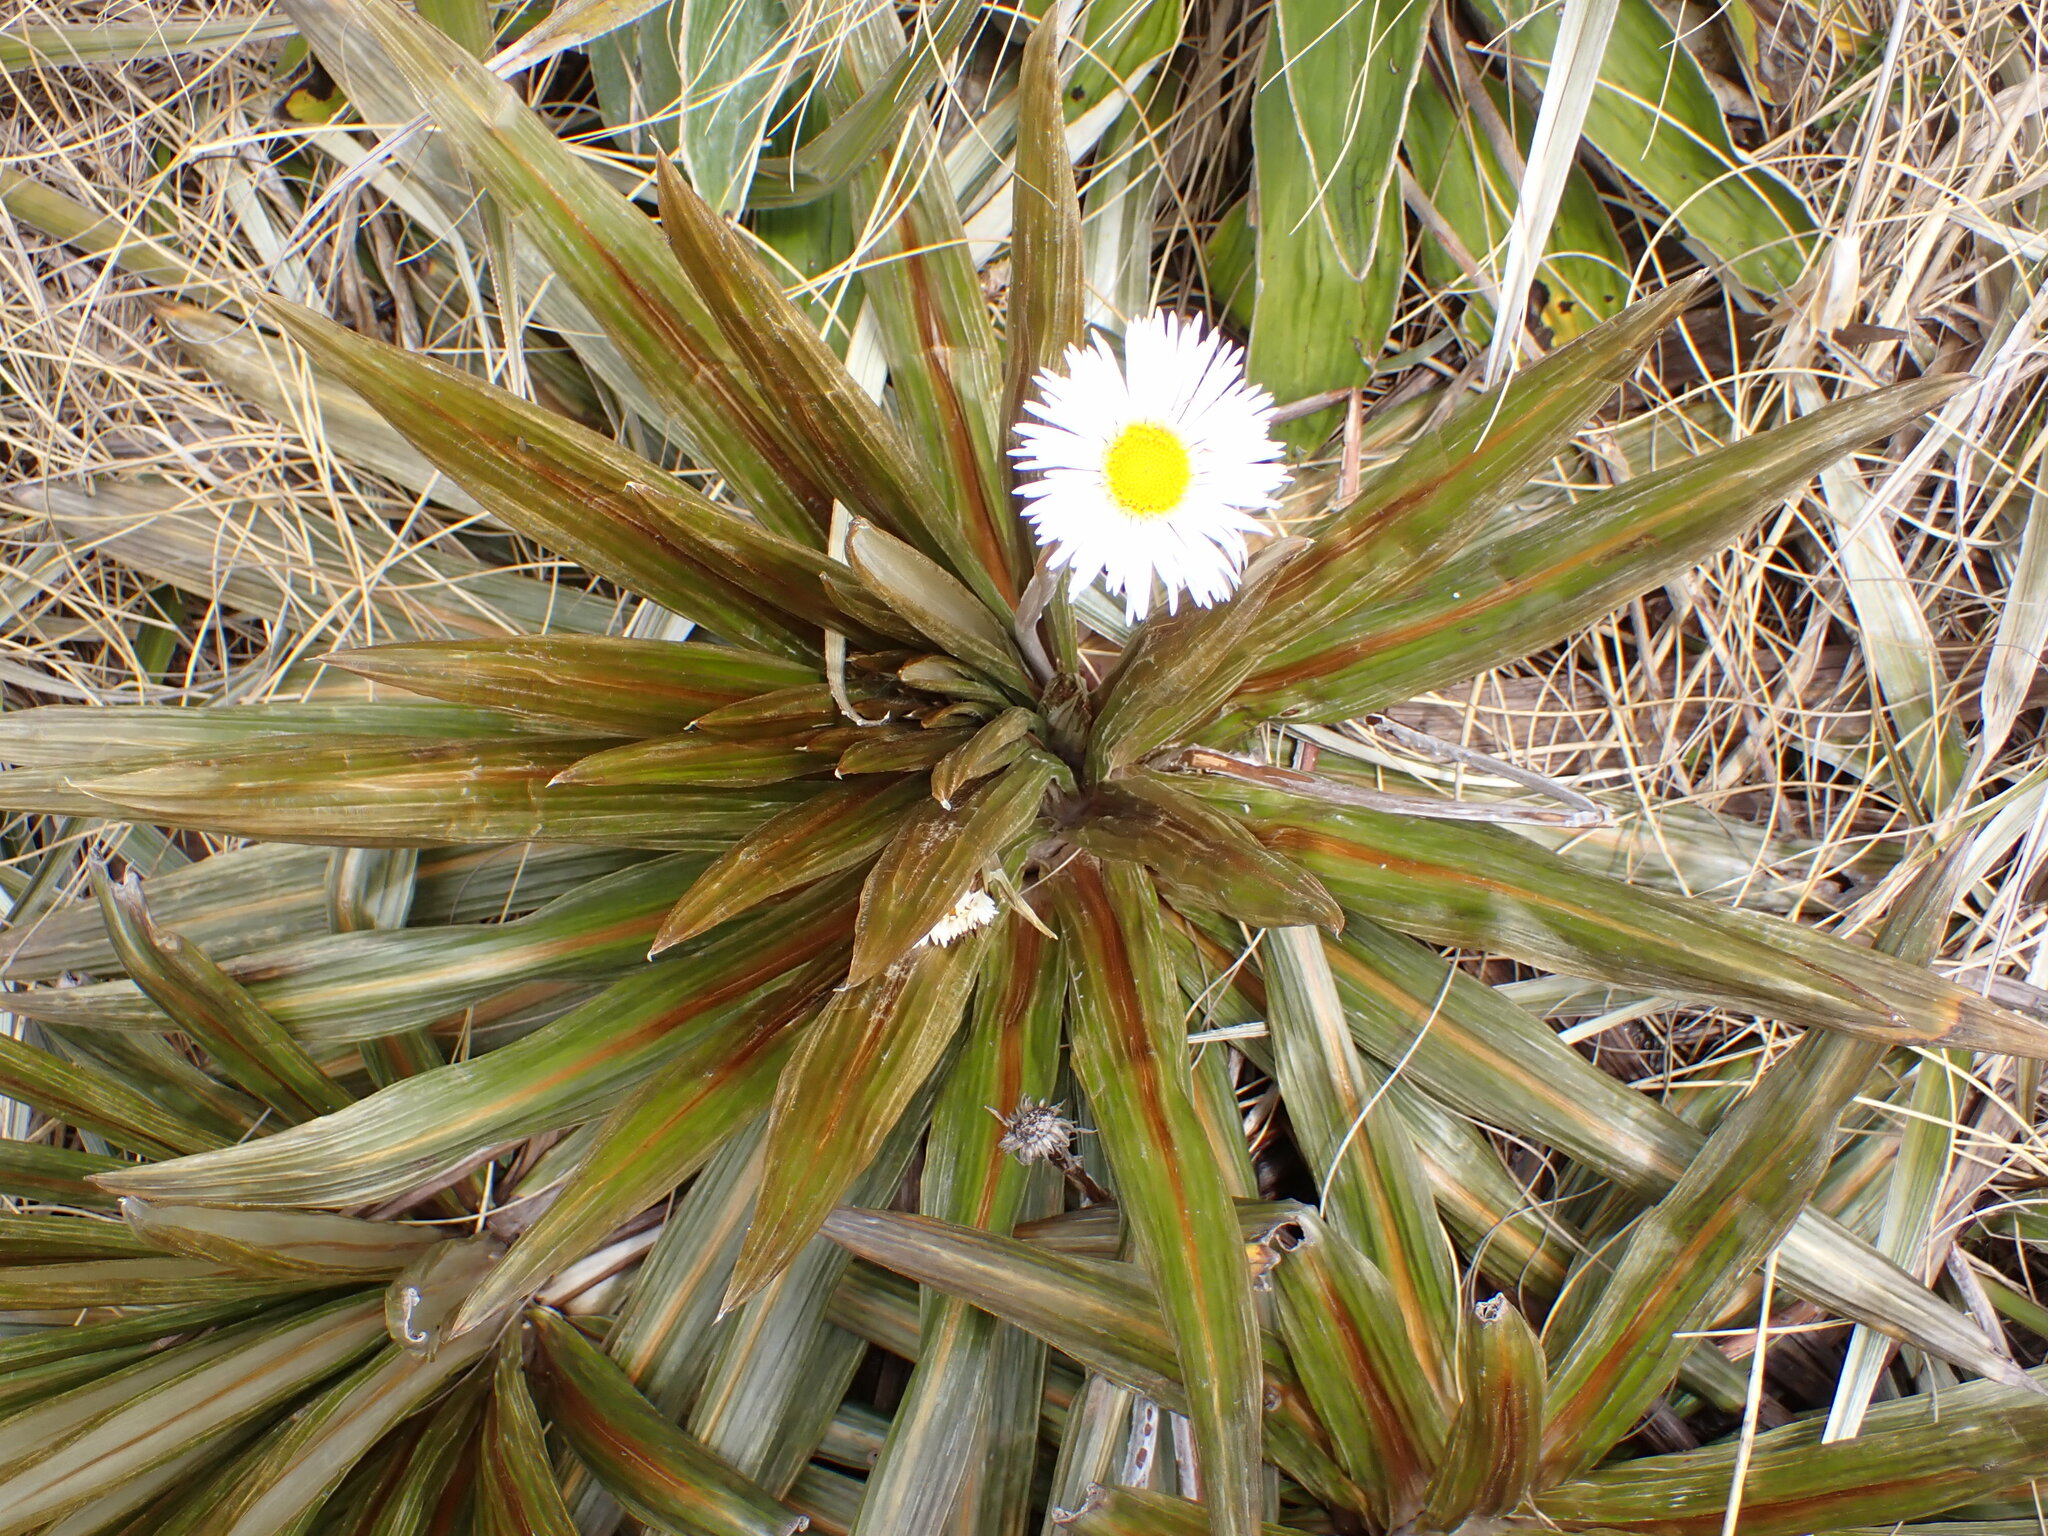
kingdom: Plantae
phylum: Tracheophyta
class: Magnoliopsida
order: Asterales
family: Asteraceae
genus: Celmisia
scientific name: Celmisia coriacea
